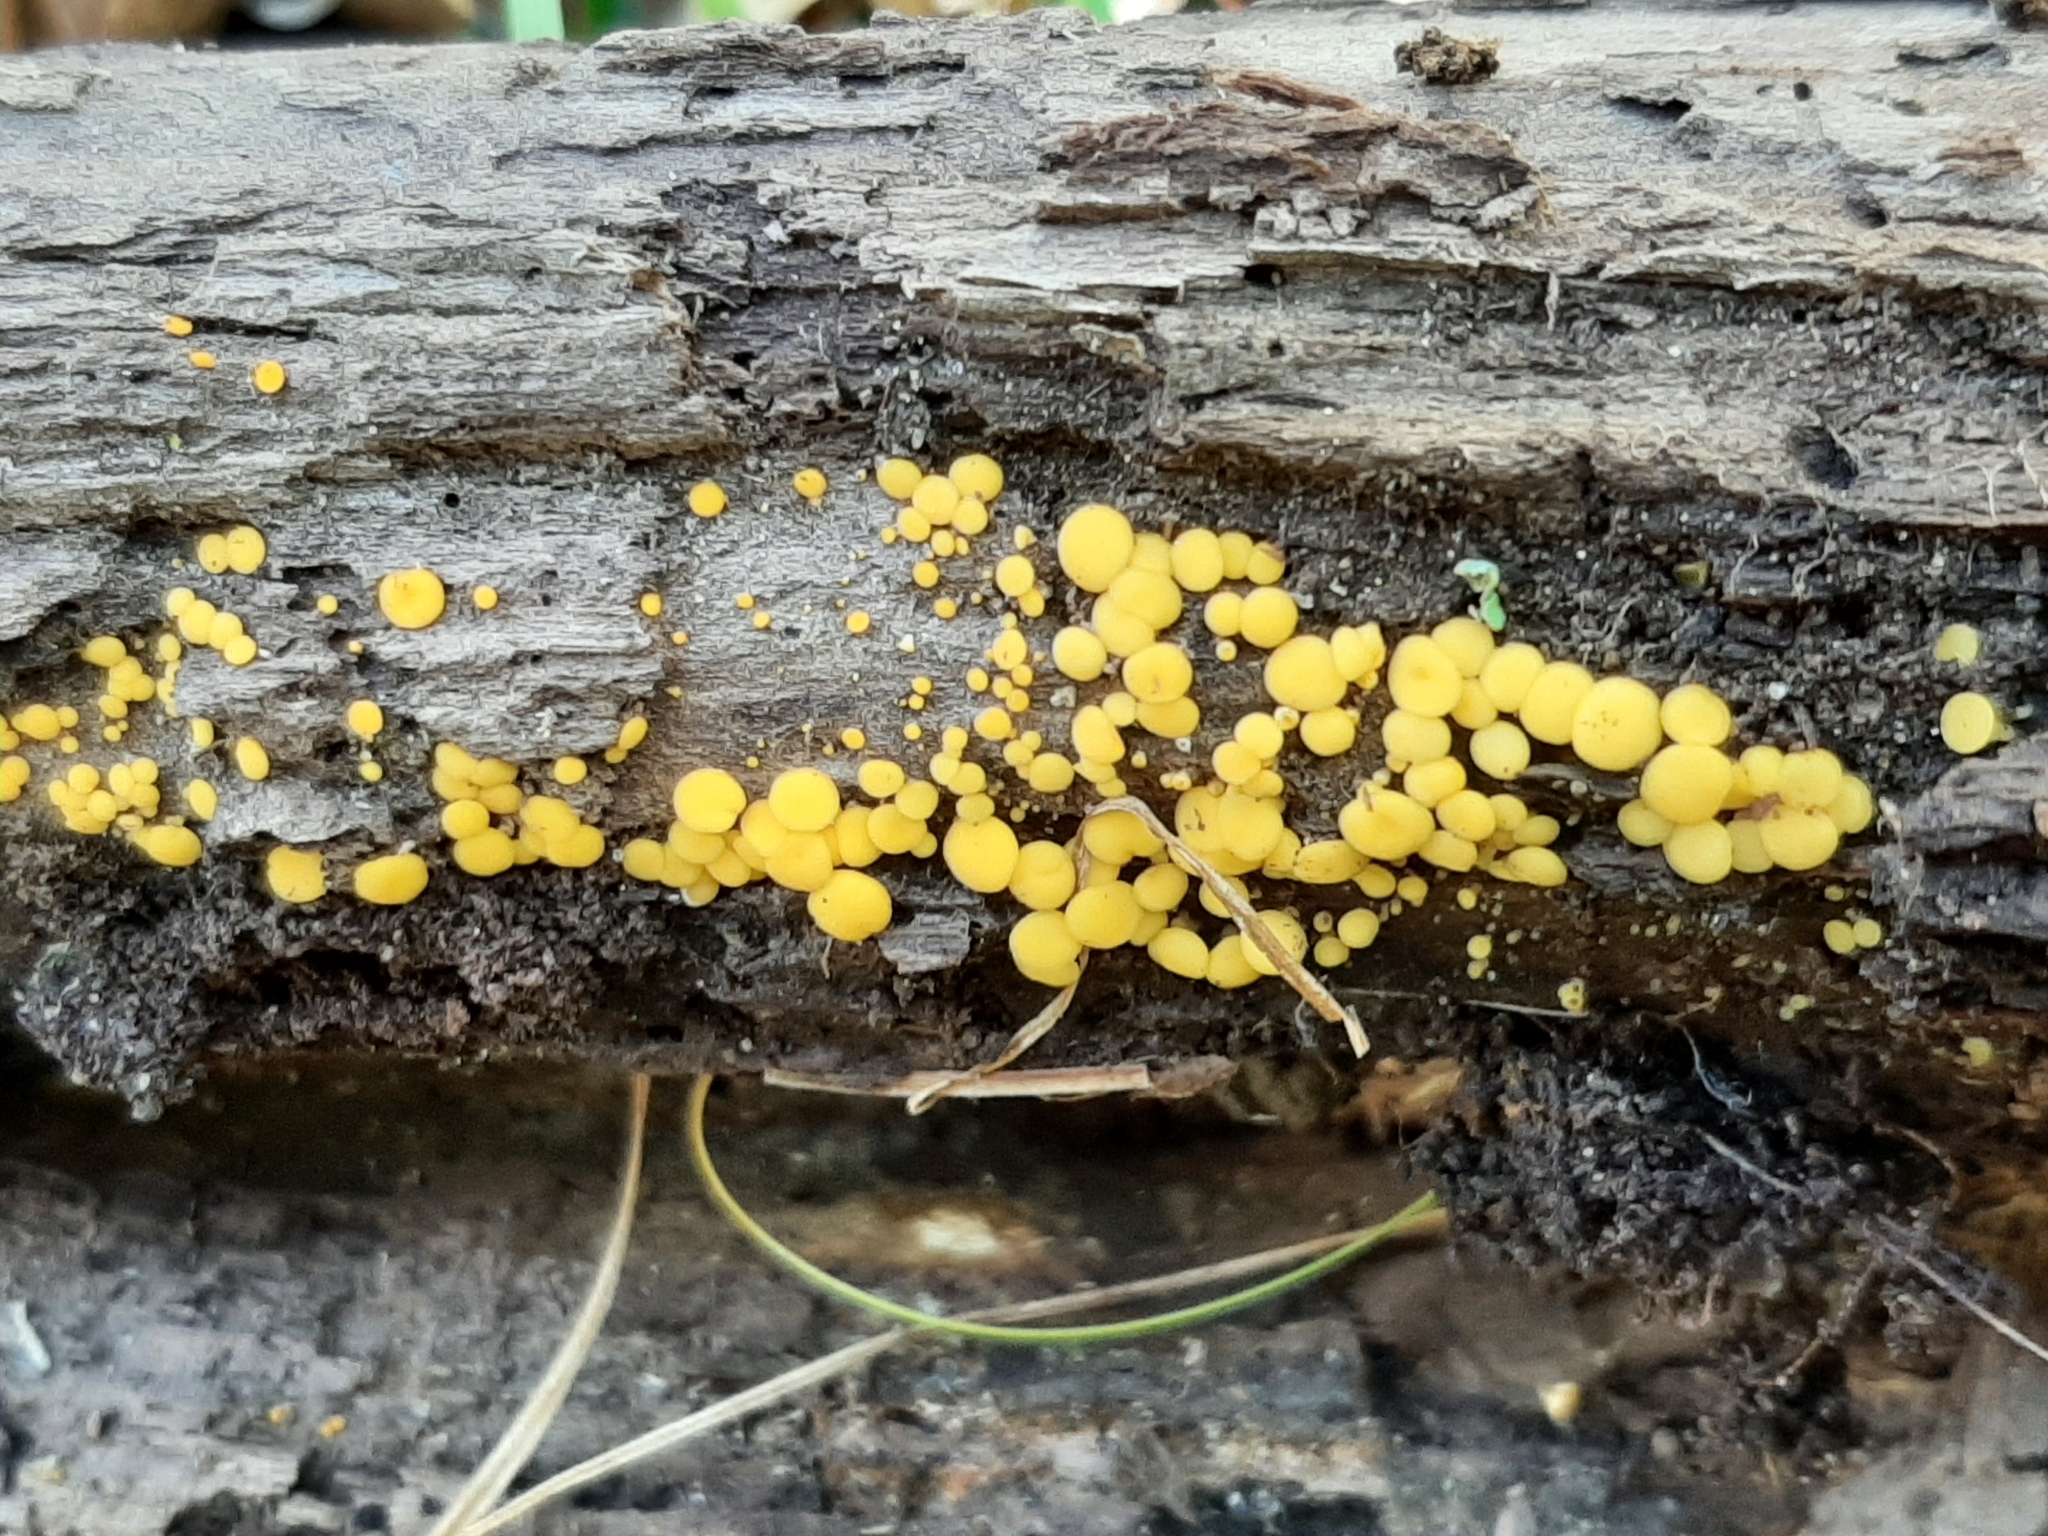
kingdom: Fungi
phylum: Ascomycota
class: Leotiomycetes
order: Helotiales
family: Pezizellaceae
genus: Calycina
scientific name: Calycina citrina
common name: Yellow fairy cups
